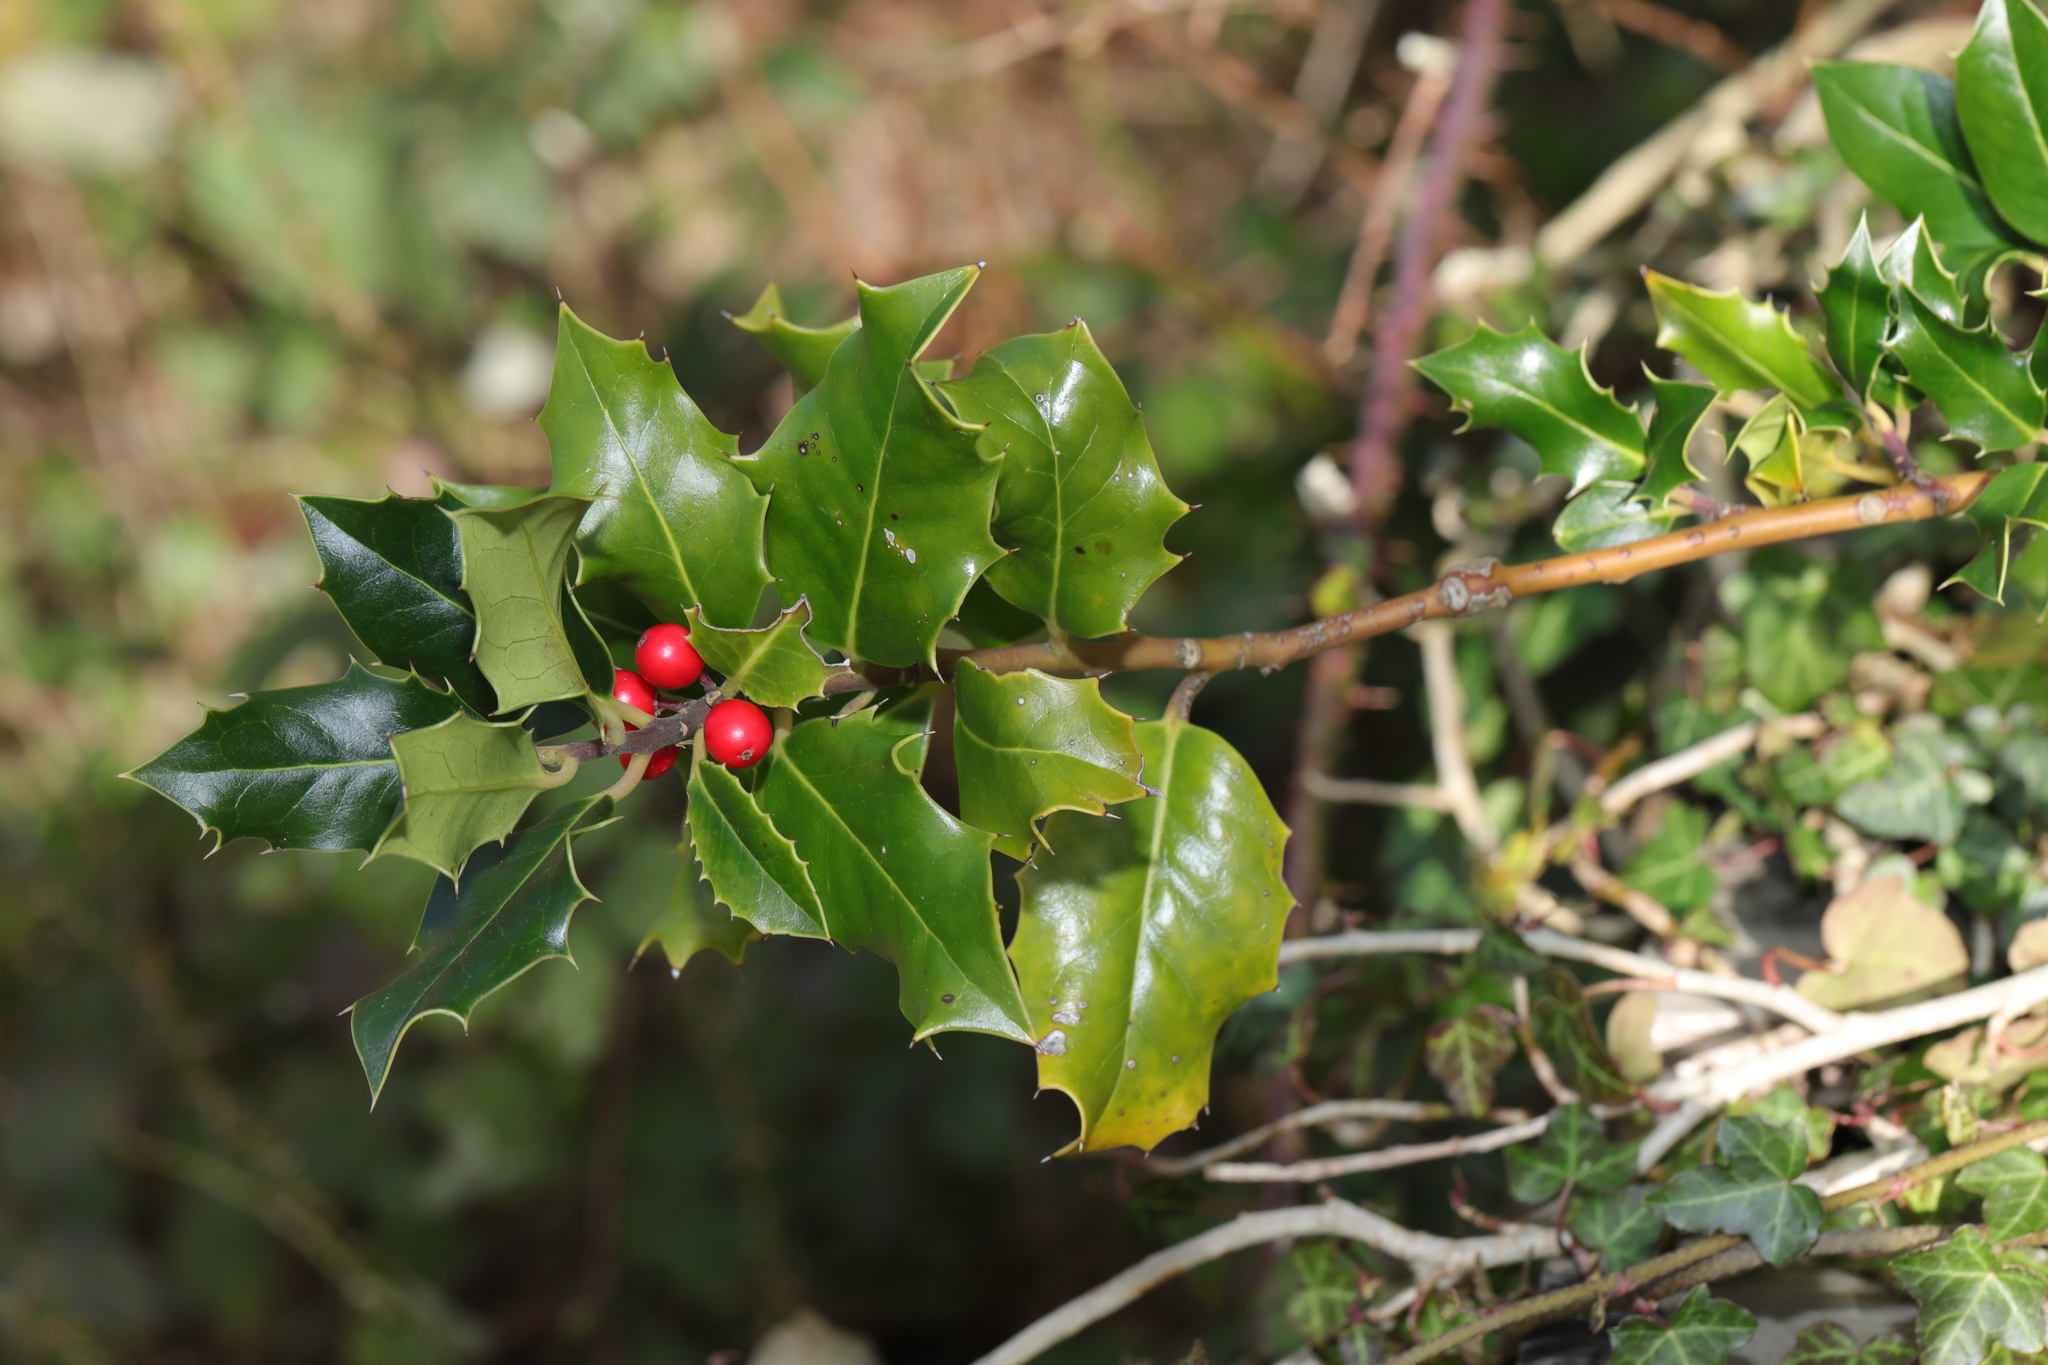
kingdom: Plantae
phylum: Tracheophyta
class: Magnoliopsida
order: Aquifoliales
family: Aquifoliaceae
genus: Ilex
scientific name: Ilex aquifolium
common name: English holly
